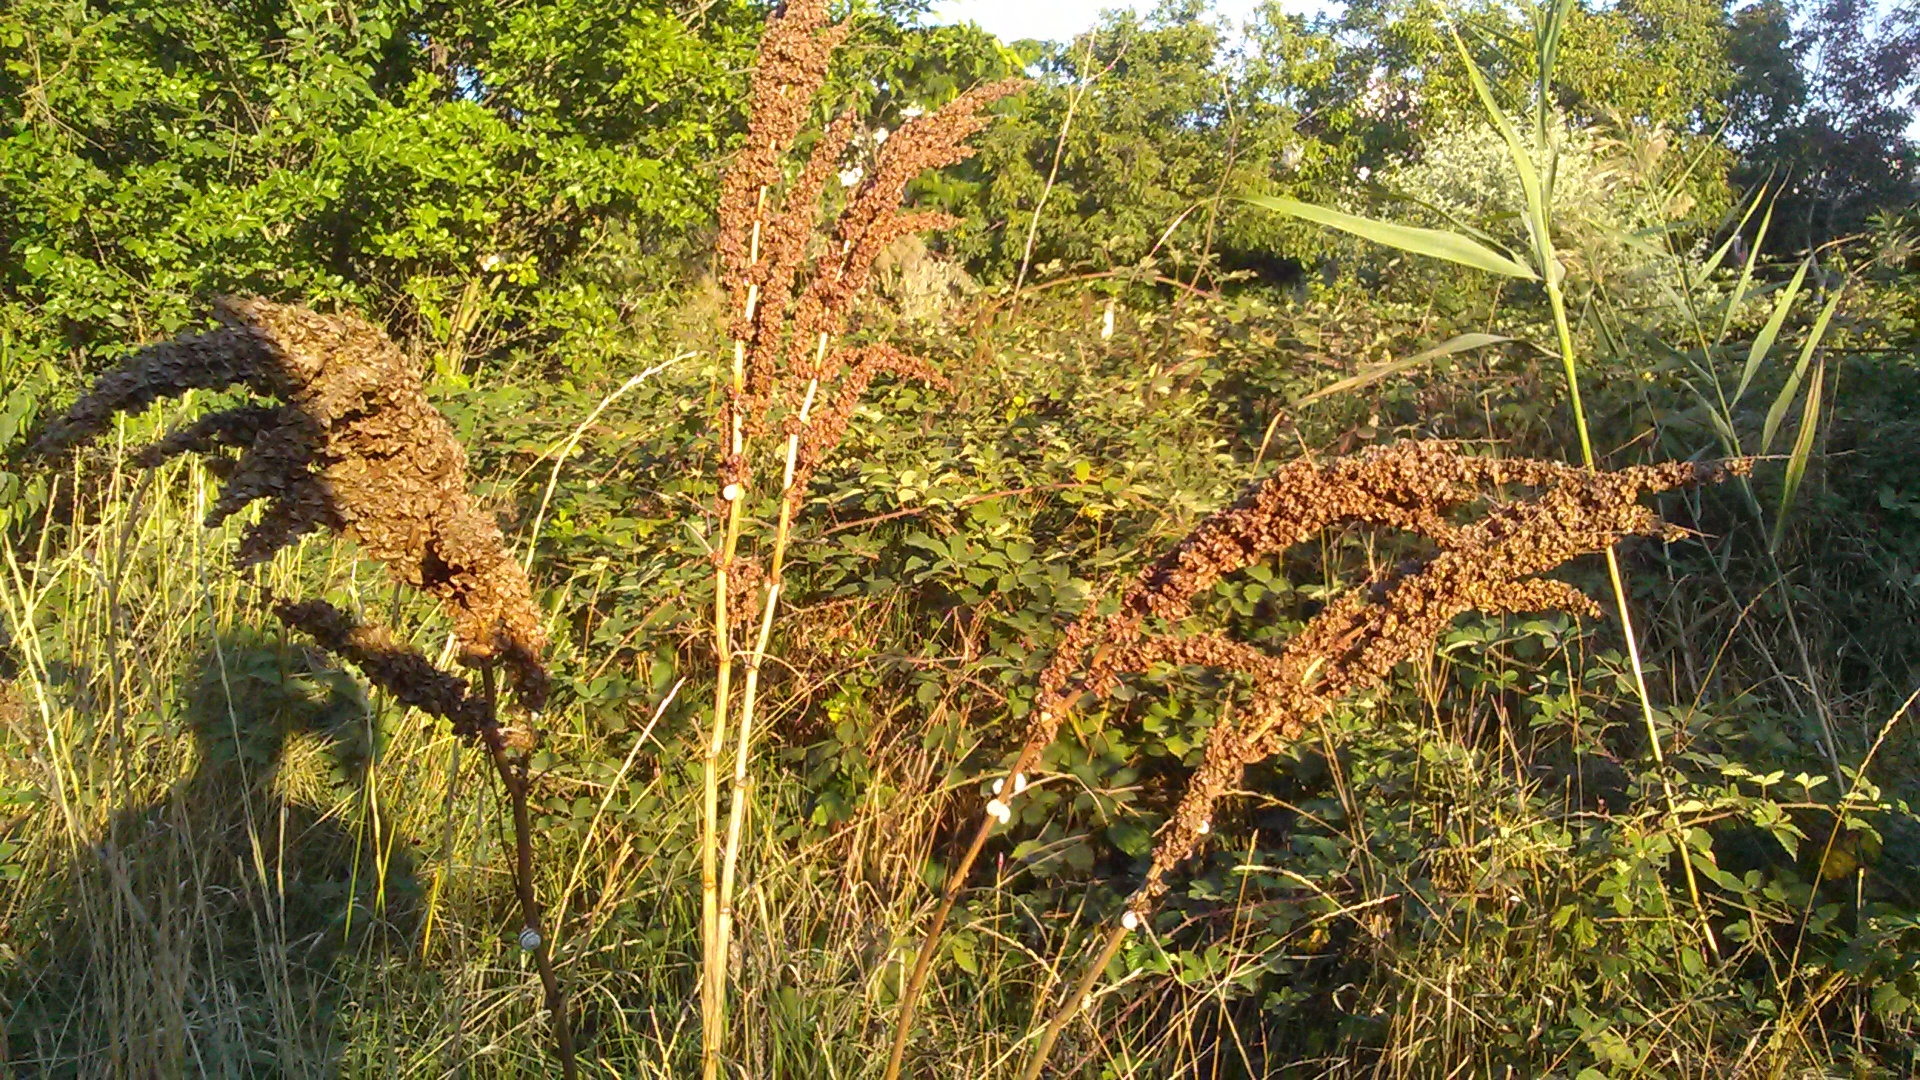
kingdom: Plantae
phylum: Tracheophyta
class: Magnoliopsida
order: Caryophyllales
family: Polygonaceae
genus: Rumex
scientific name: Rumex patientia
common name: Patience dock
